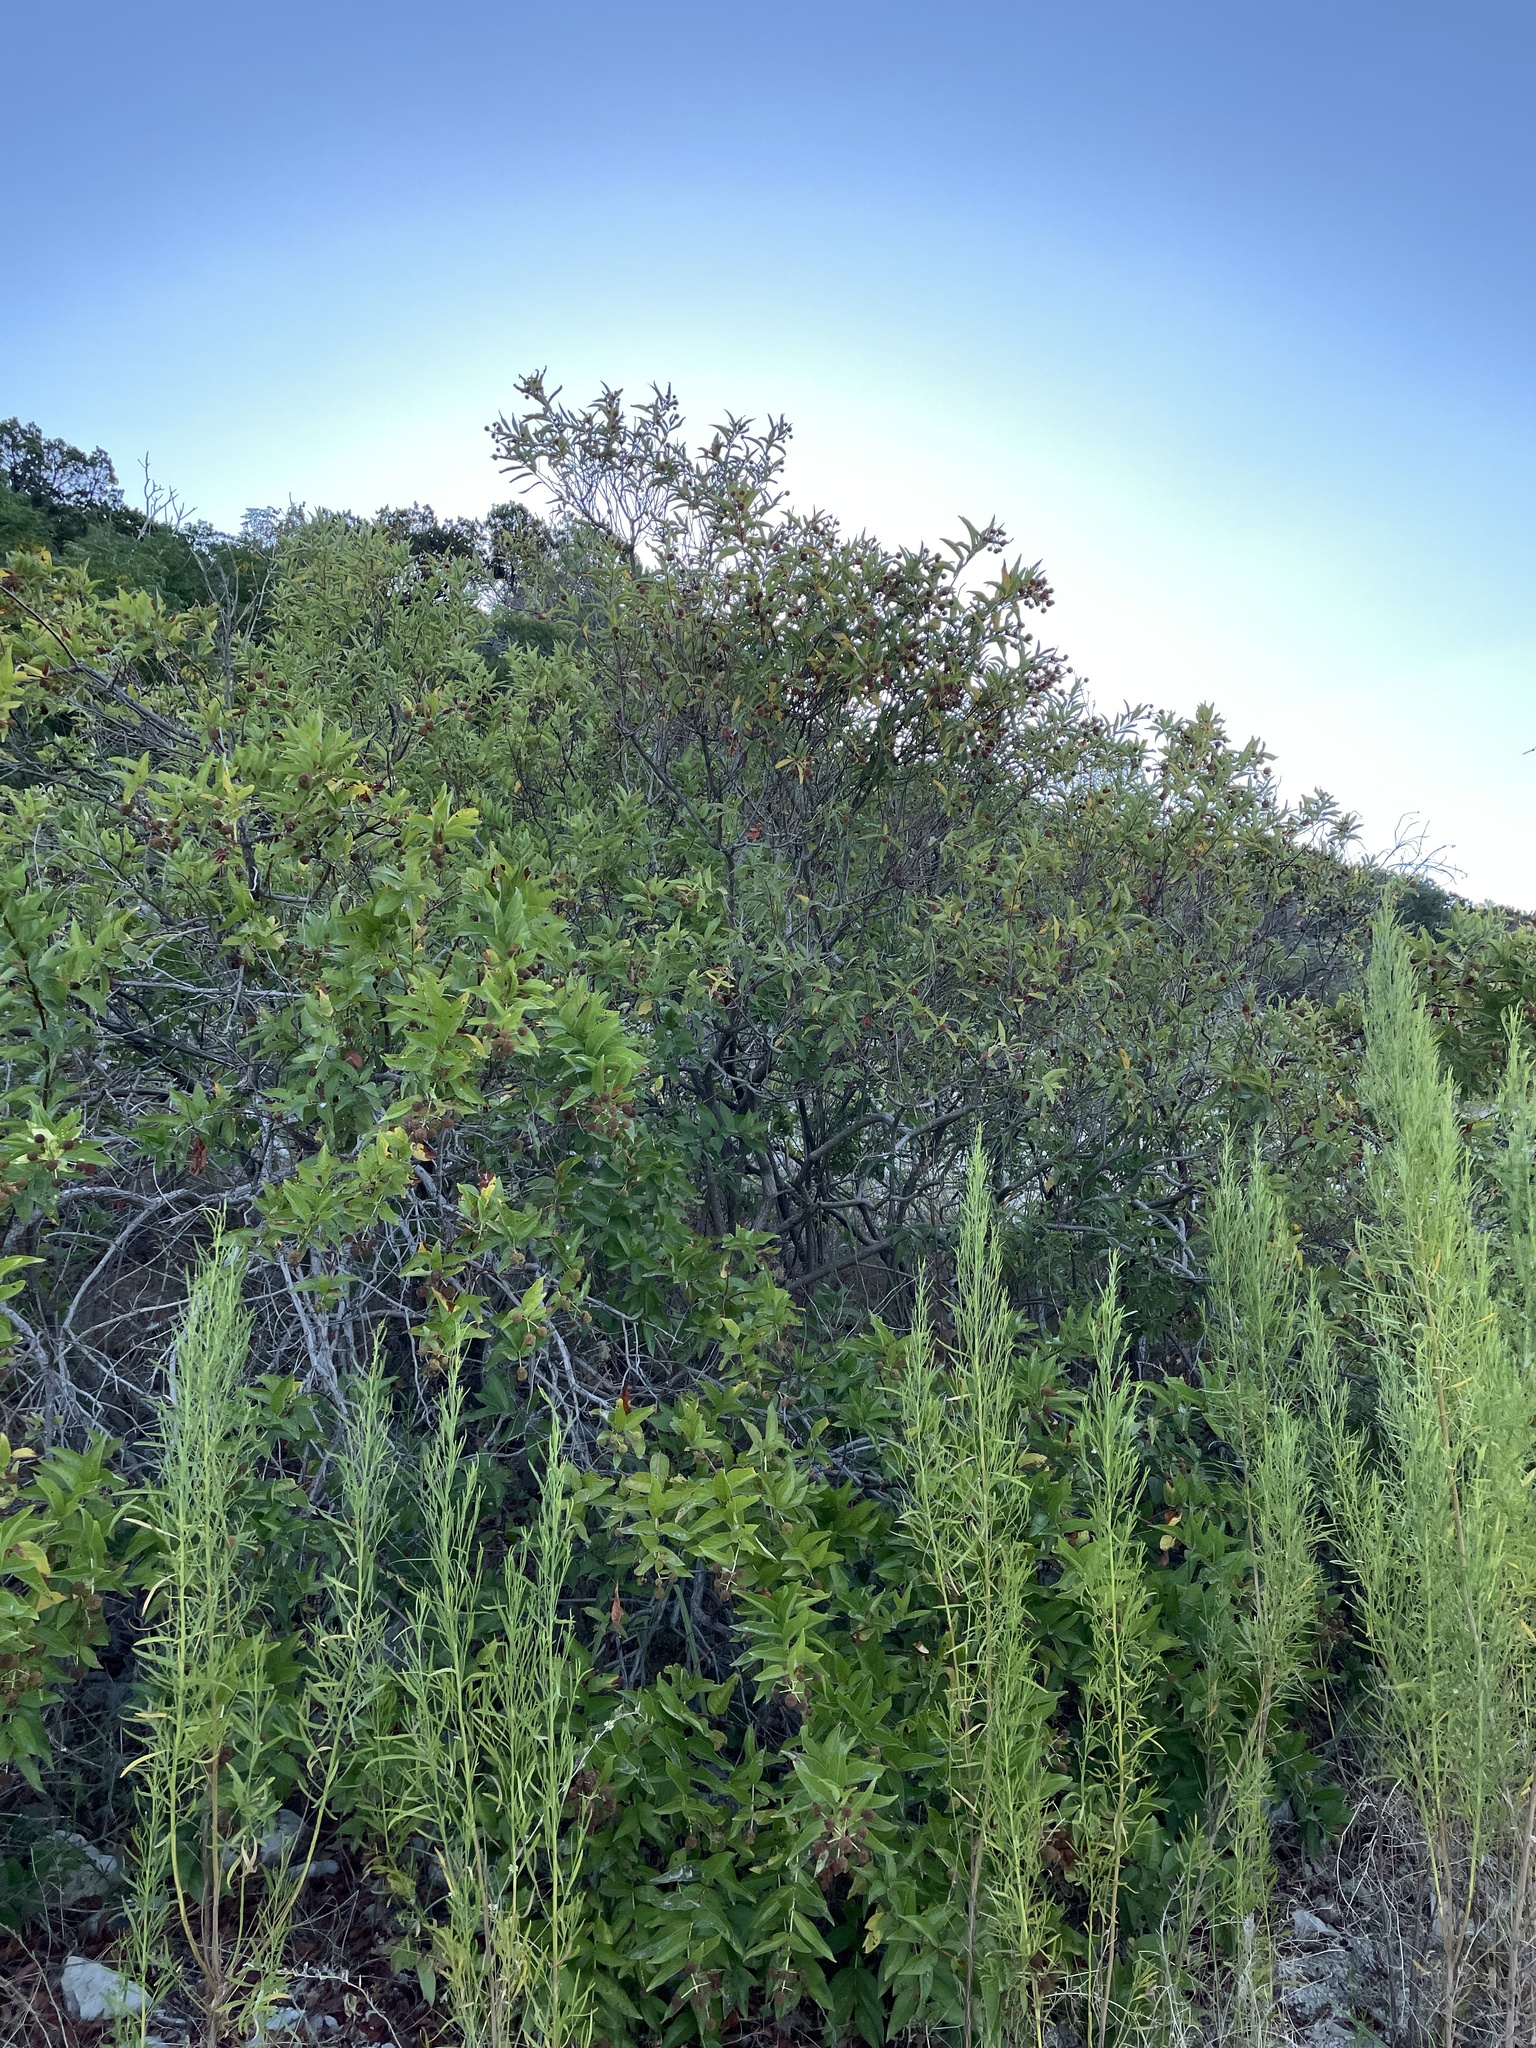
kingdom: Plantae
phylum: Tracheophyta
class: Magnoliopsida
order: Gentianales
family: Rubiaceae
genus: Cephalanthus
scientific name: Cephalanthus occidentalis
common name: Button-willow
